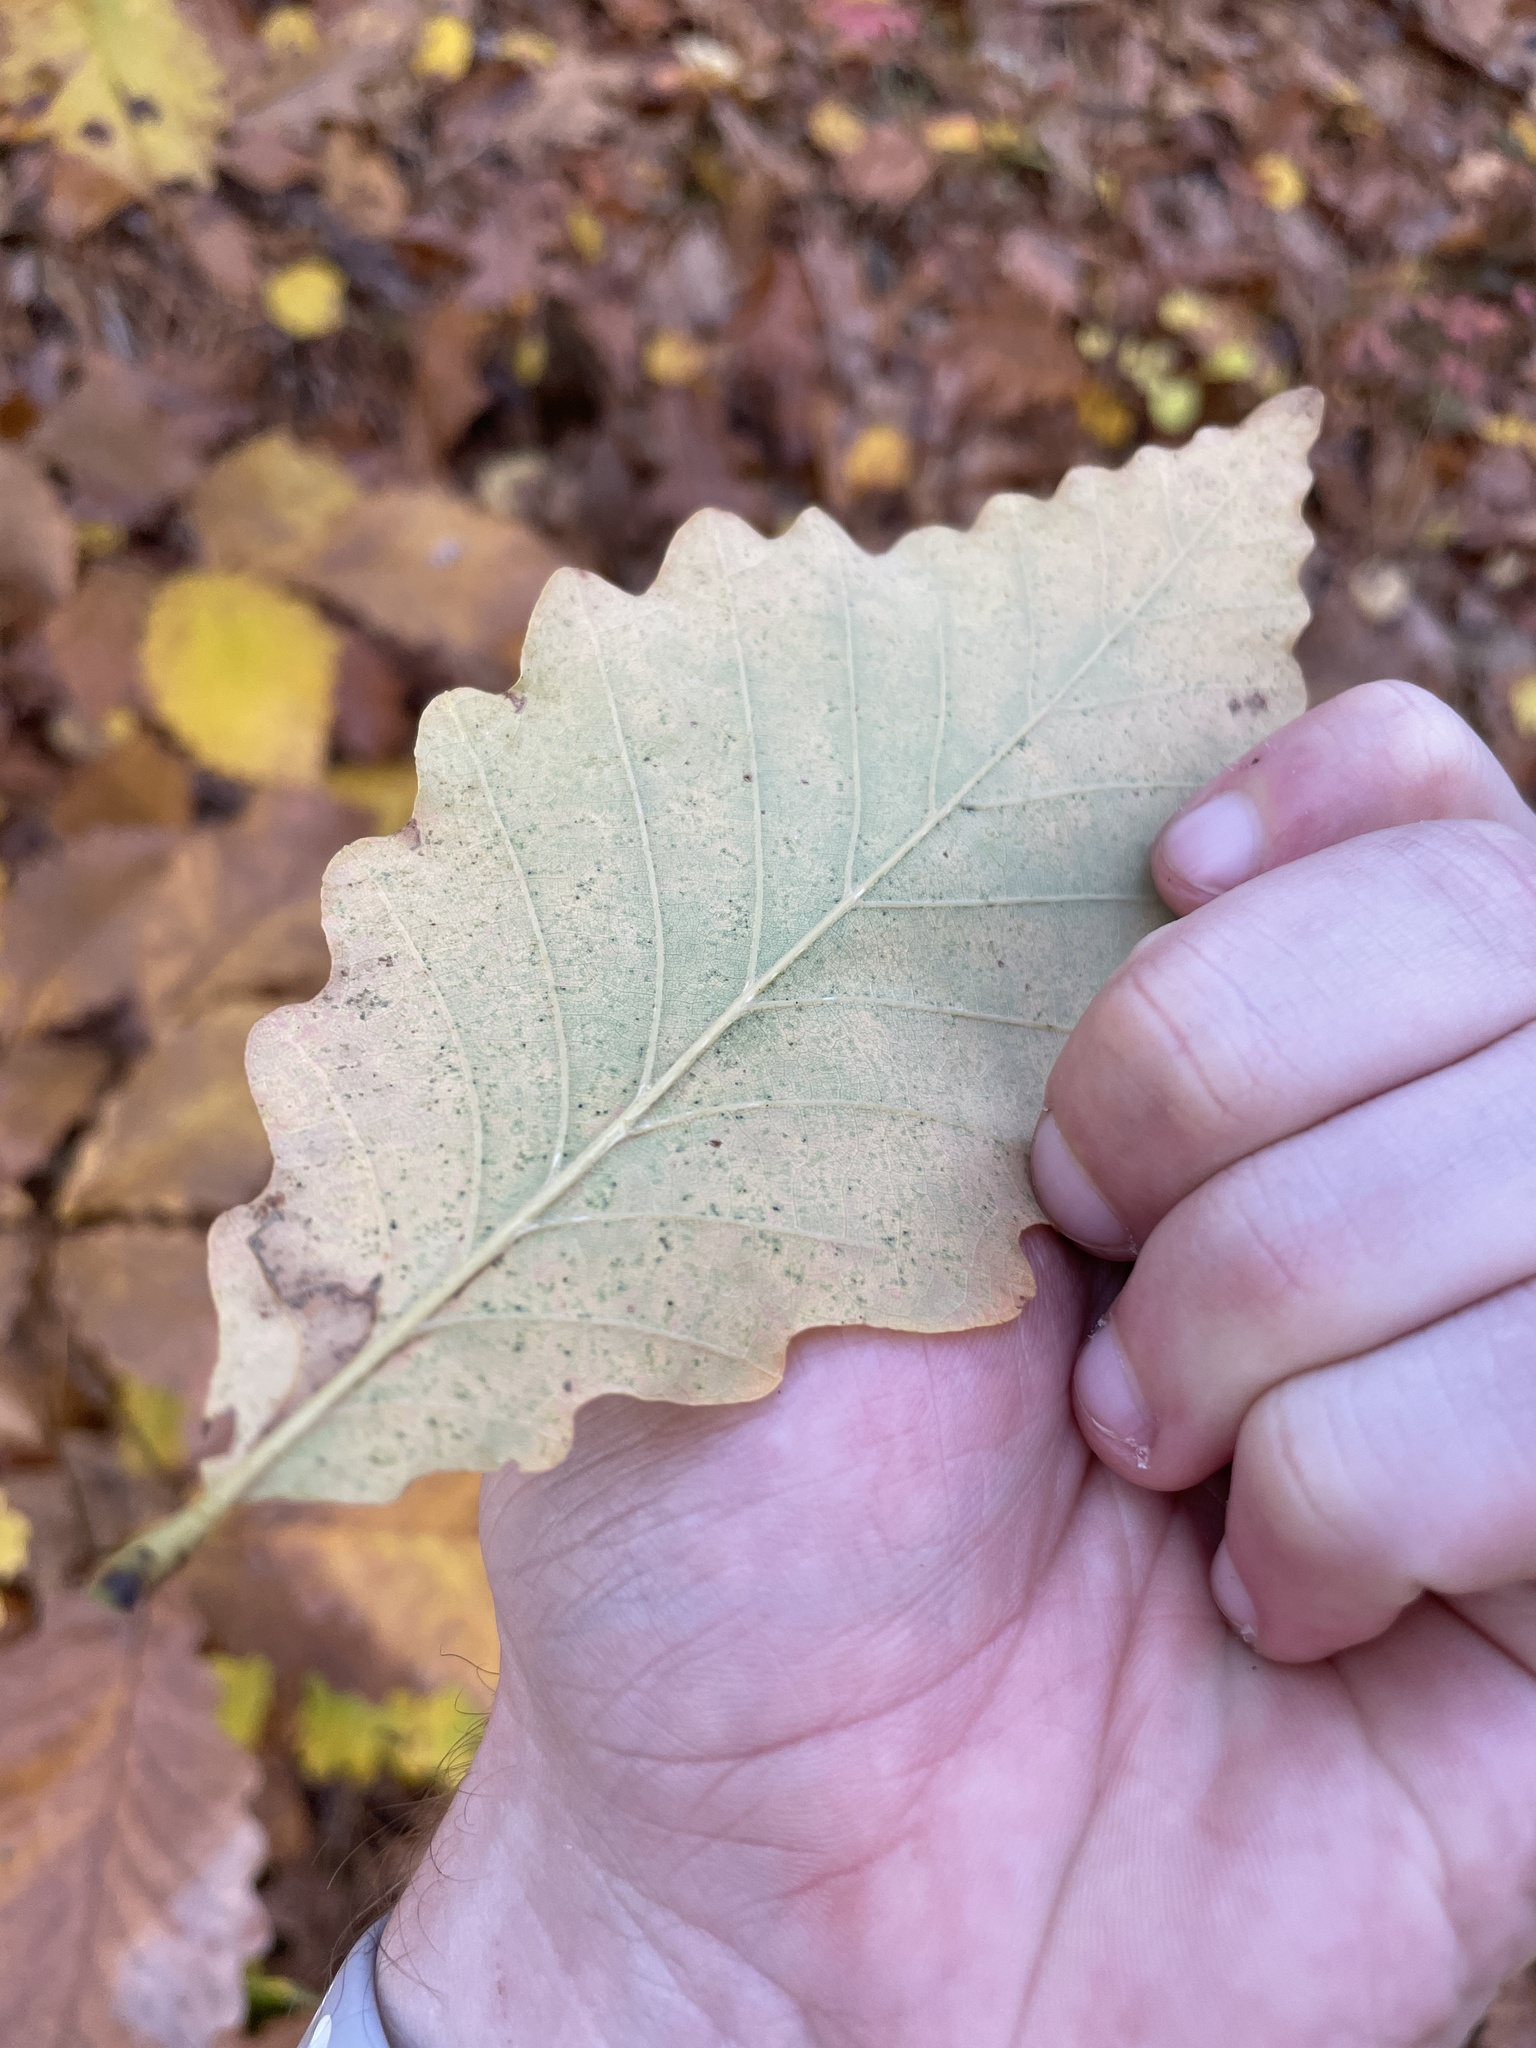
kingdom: Plantae
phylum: Tracheophyta
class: Magnoliopsida
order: Fagales
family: Fagaceae
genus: Quercus
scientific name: Quercus montana
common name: Chestnut oak
